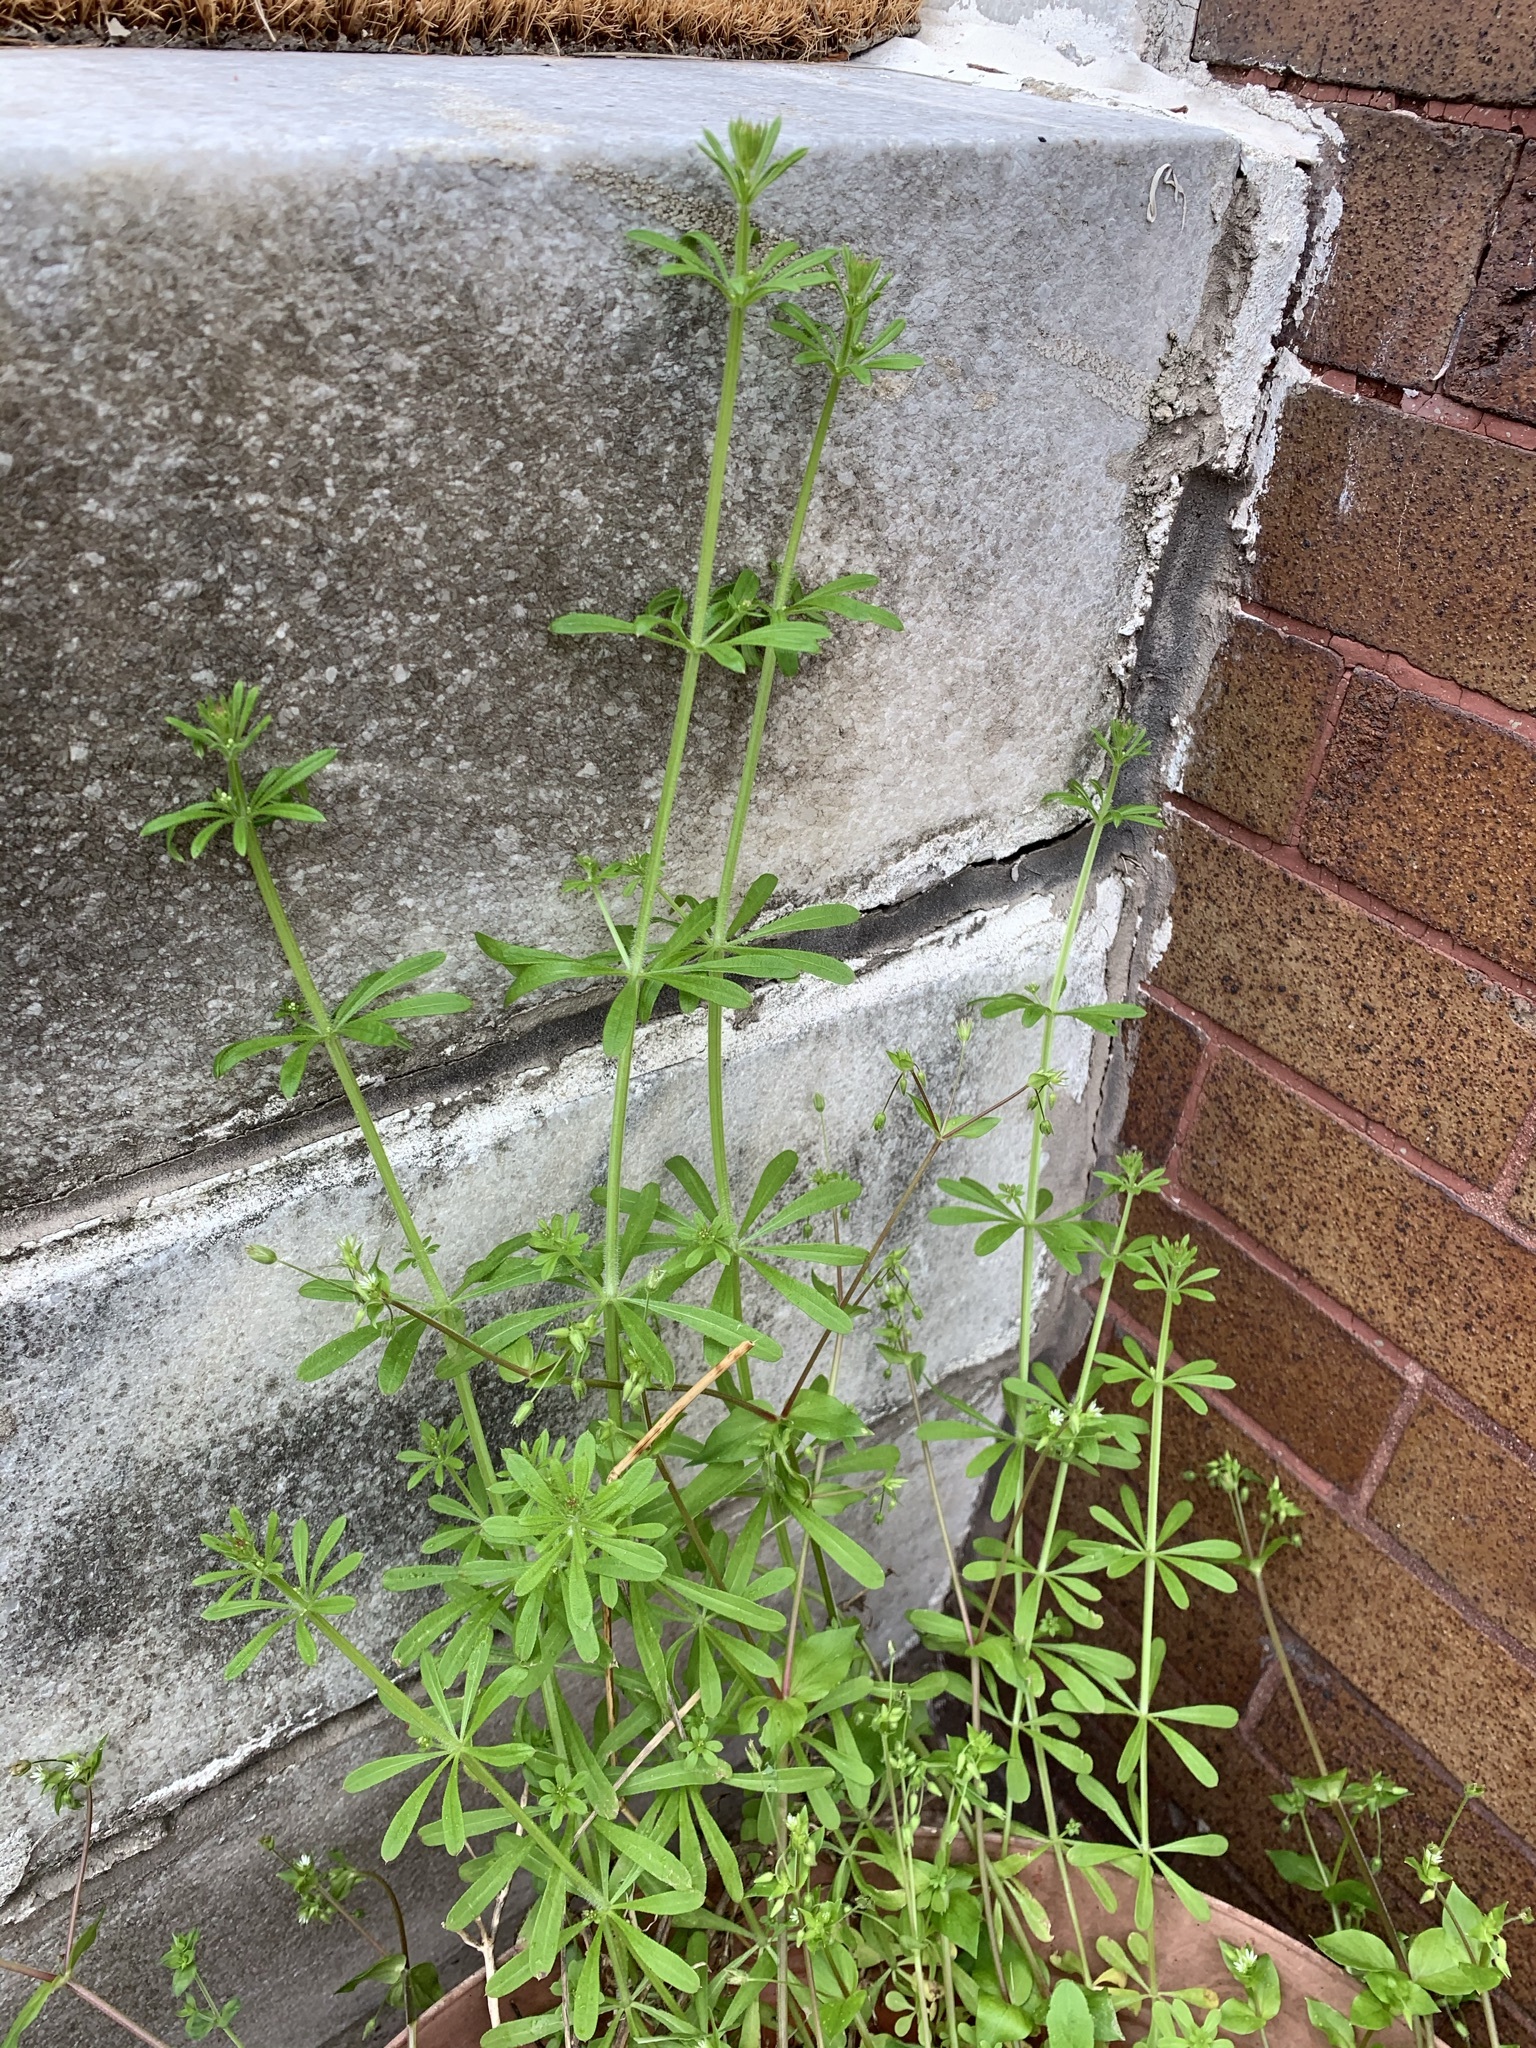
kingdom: Plantae
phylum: Tracheophyta
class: Magnoliopsida
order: Gentianales
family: Rubiaceae
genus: Galium
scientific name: Galium aparine
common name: Cleavers
